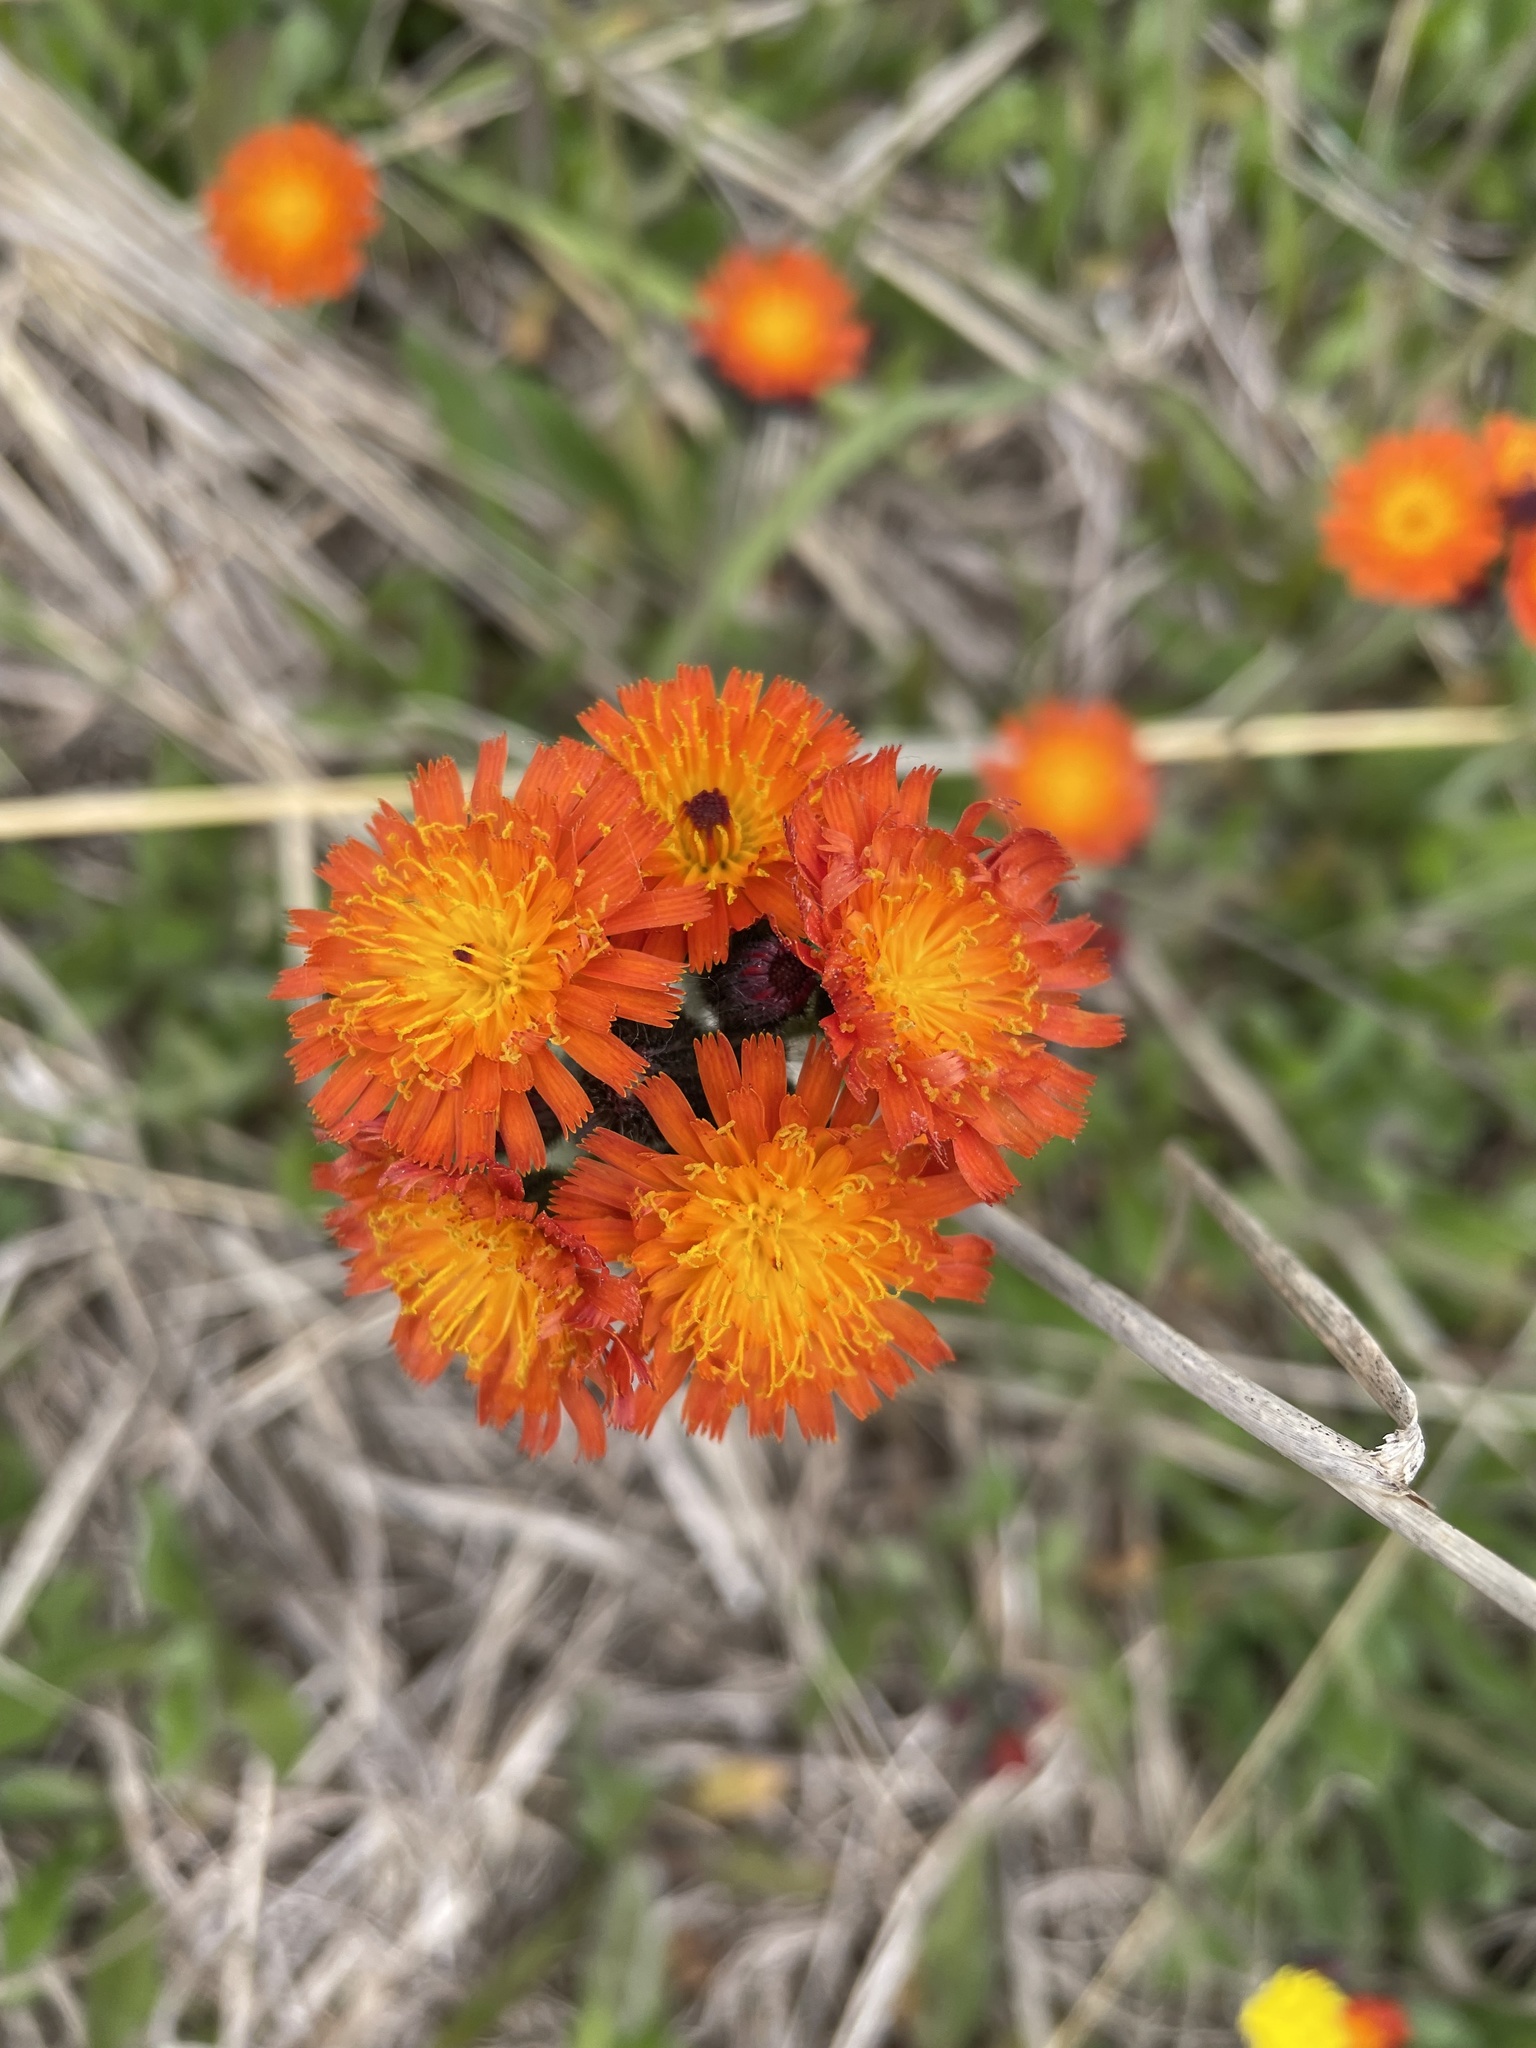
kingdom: Plantae
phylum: Tracheophyta
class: Magnoliopsida
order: Asterales
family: Asteraceae
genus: Pilosella
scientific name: Pilosella aurantiaca
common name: Fox-and-cubs
